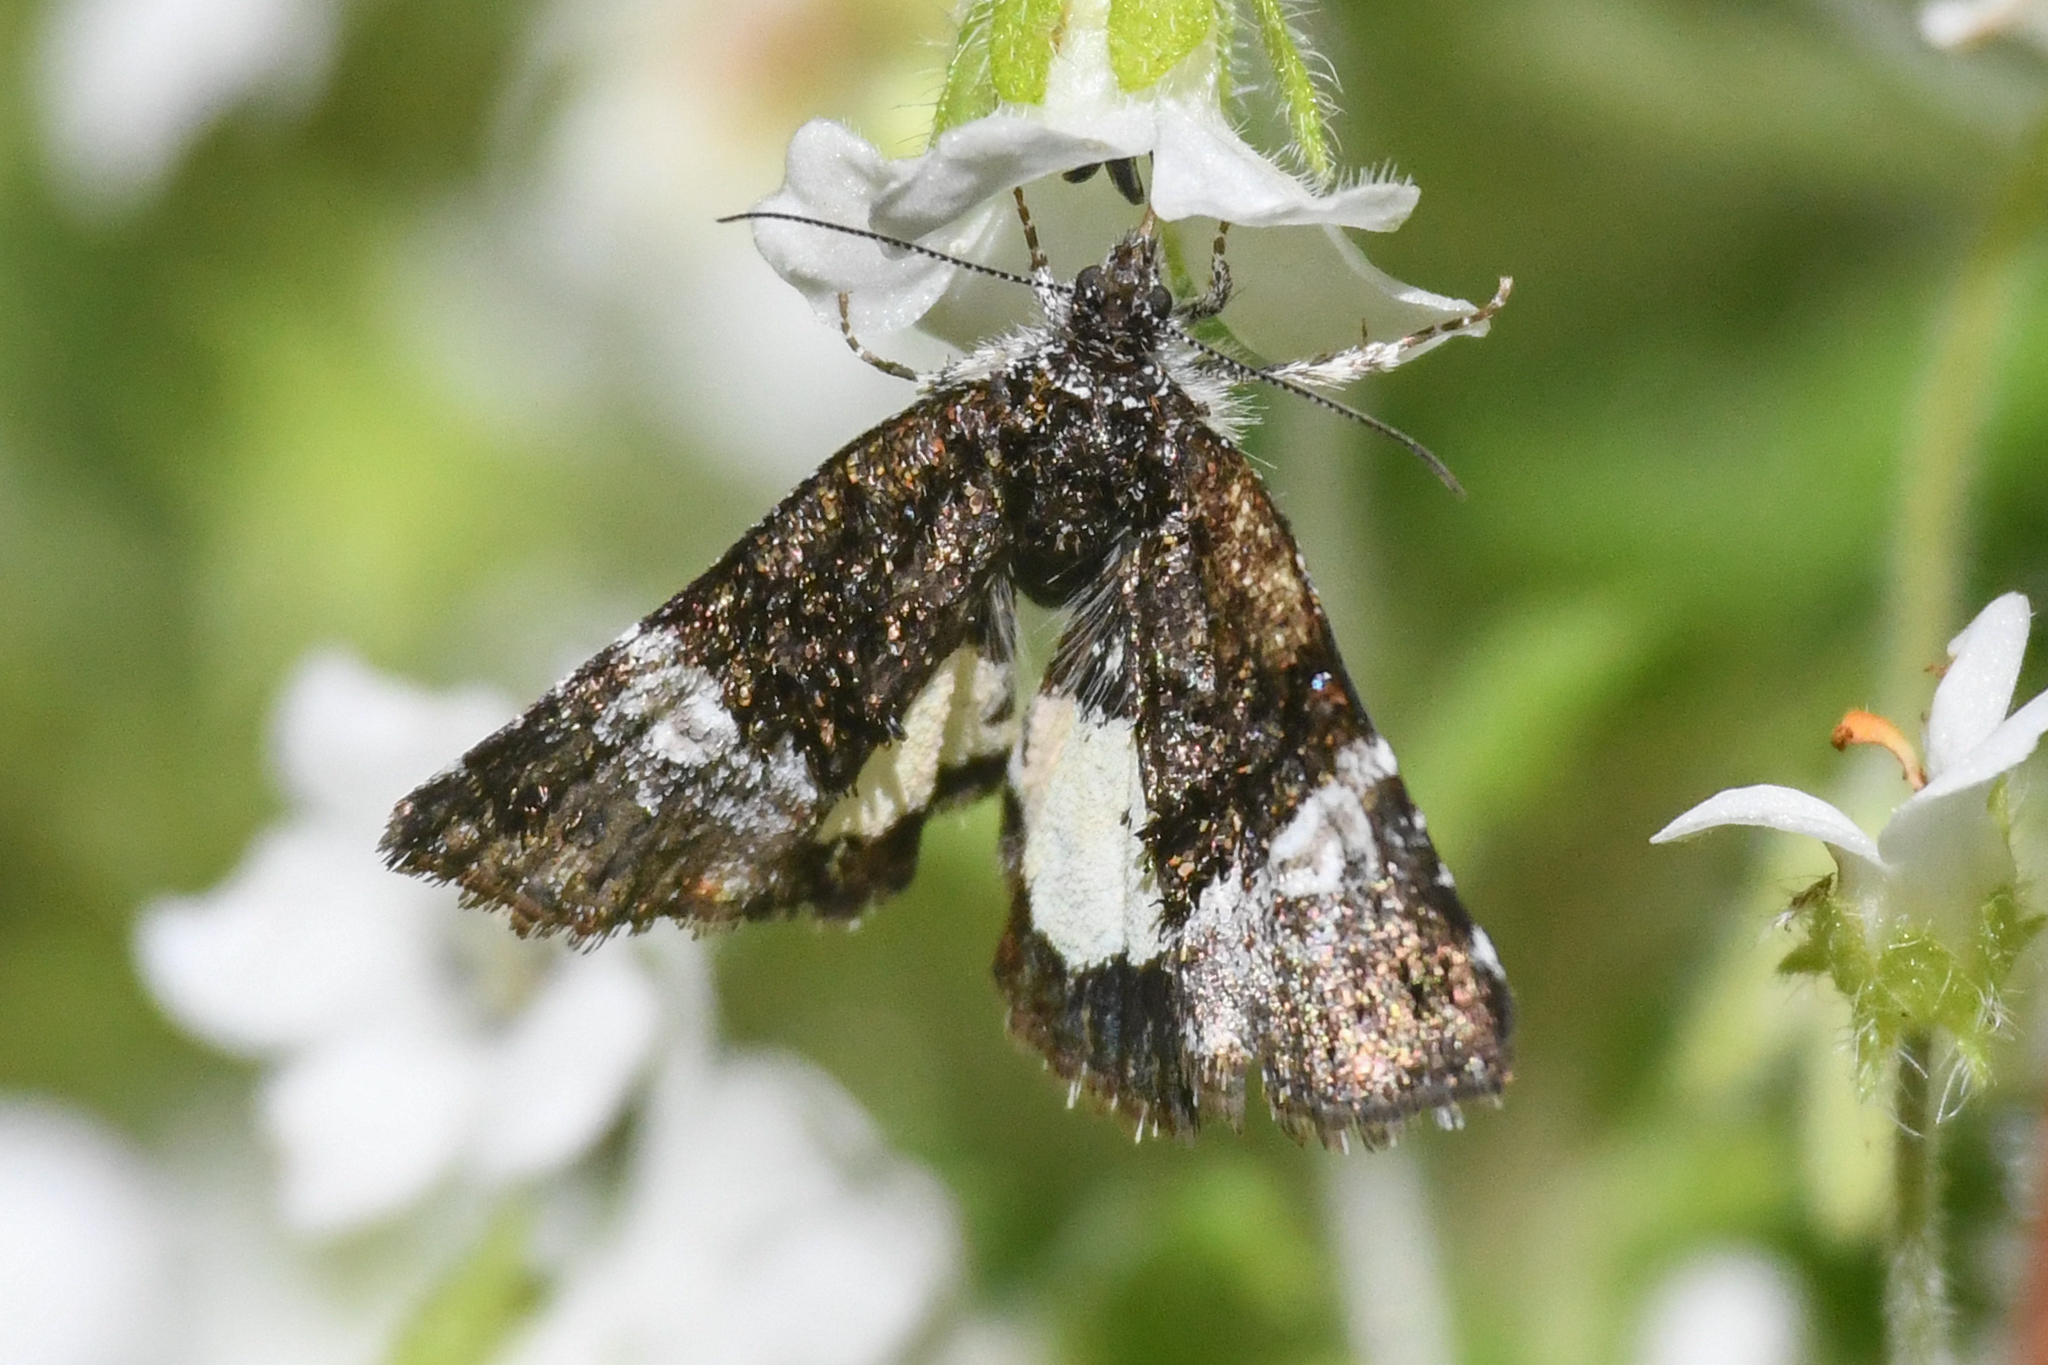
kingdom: Animalia
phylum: Arthropoda
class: Insecta
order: Lepidoptera
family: Noctuidae
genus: Annaphila
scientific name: Annaphila diva
